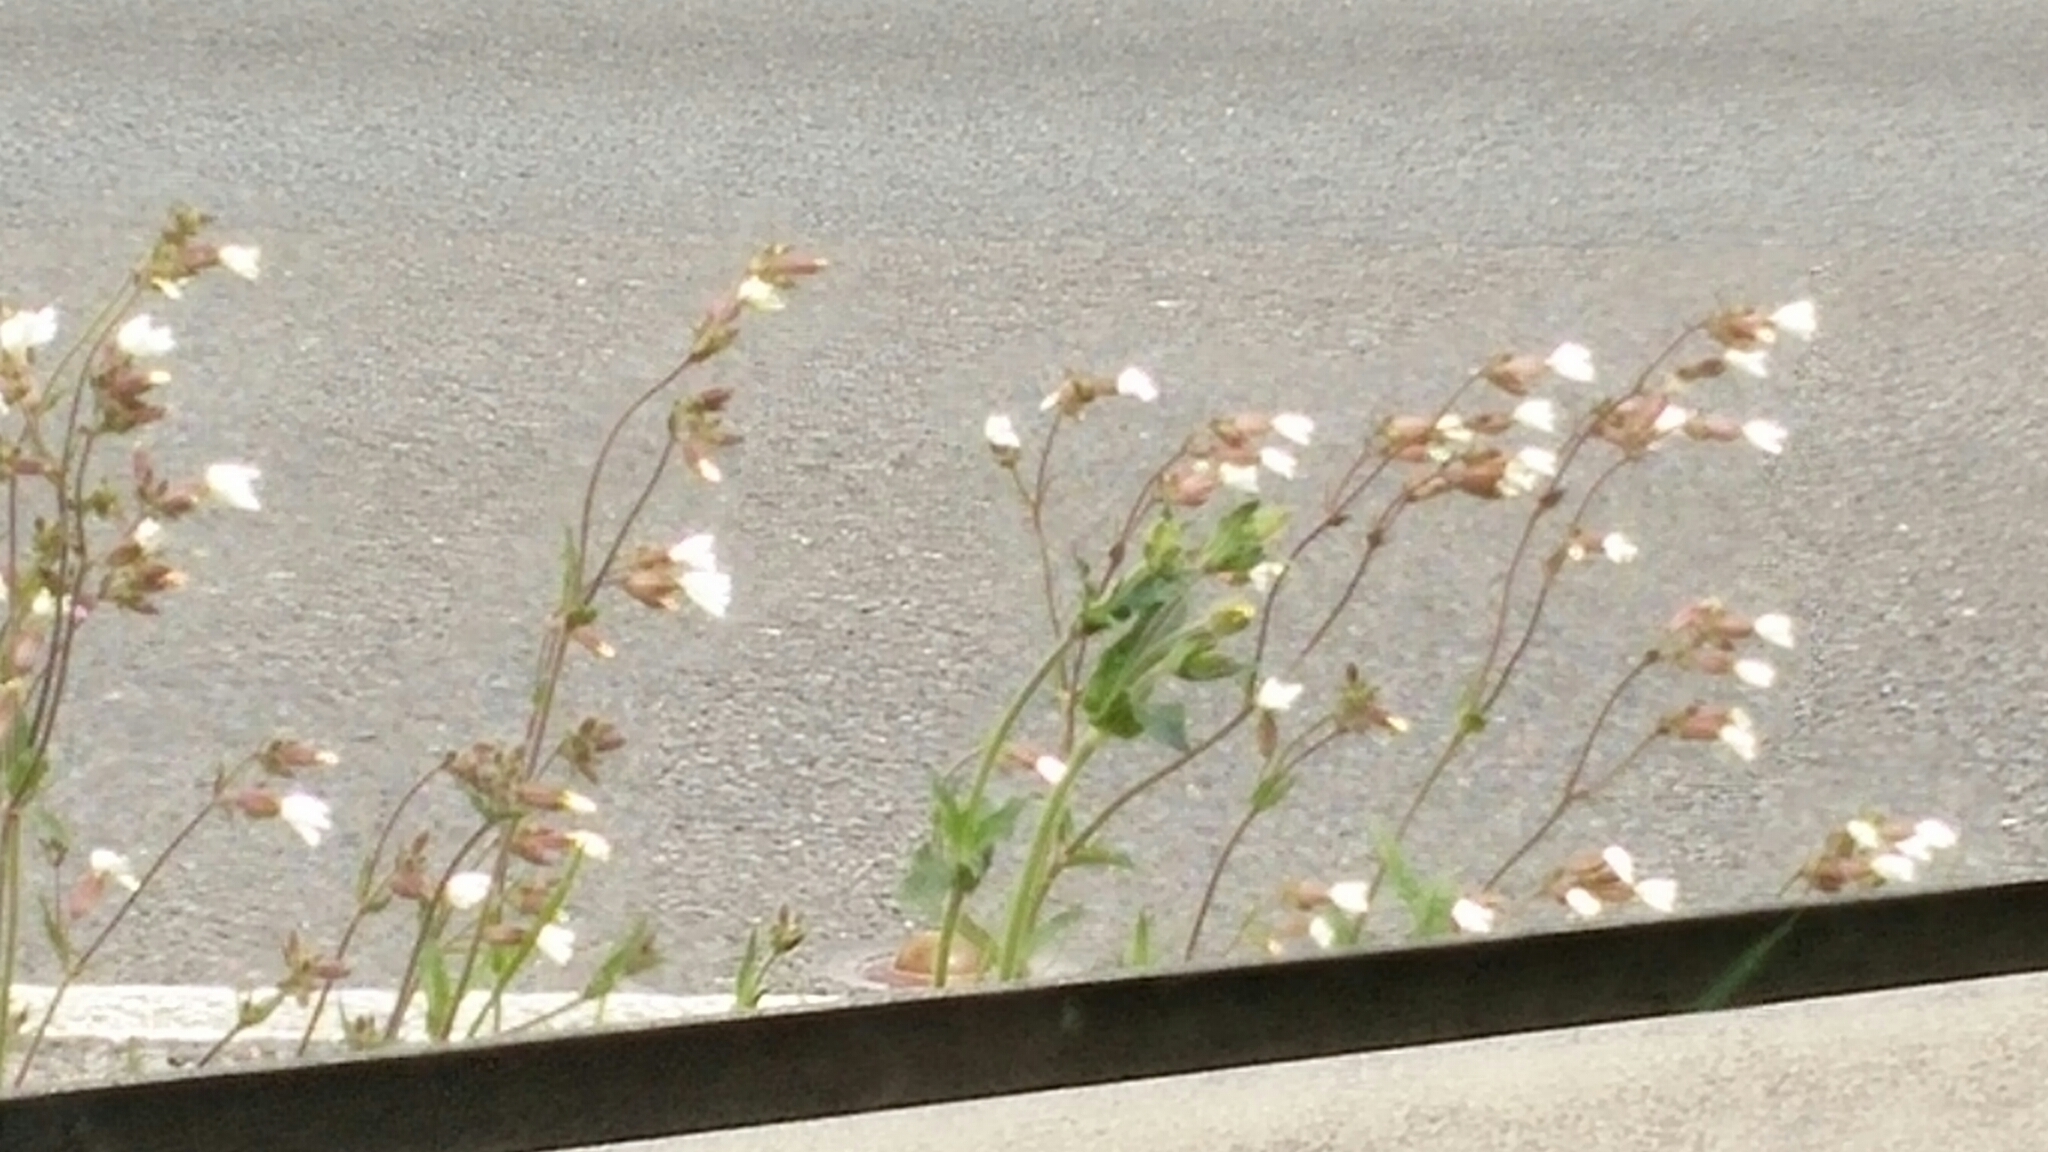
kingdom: Plantae
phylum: Tracheophyta
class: Magnoliopsida
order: Caryophyllales
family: Caryophyllaceae
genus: Silene
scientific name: Silene latifolia
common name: White campion
